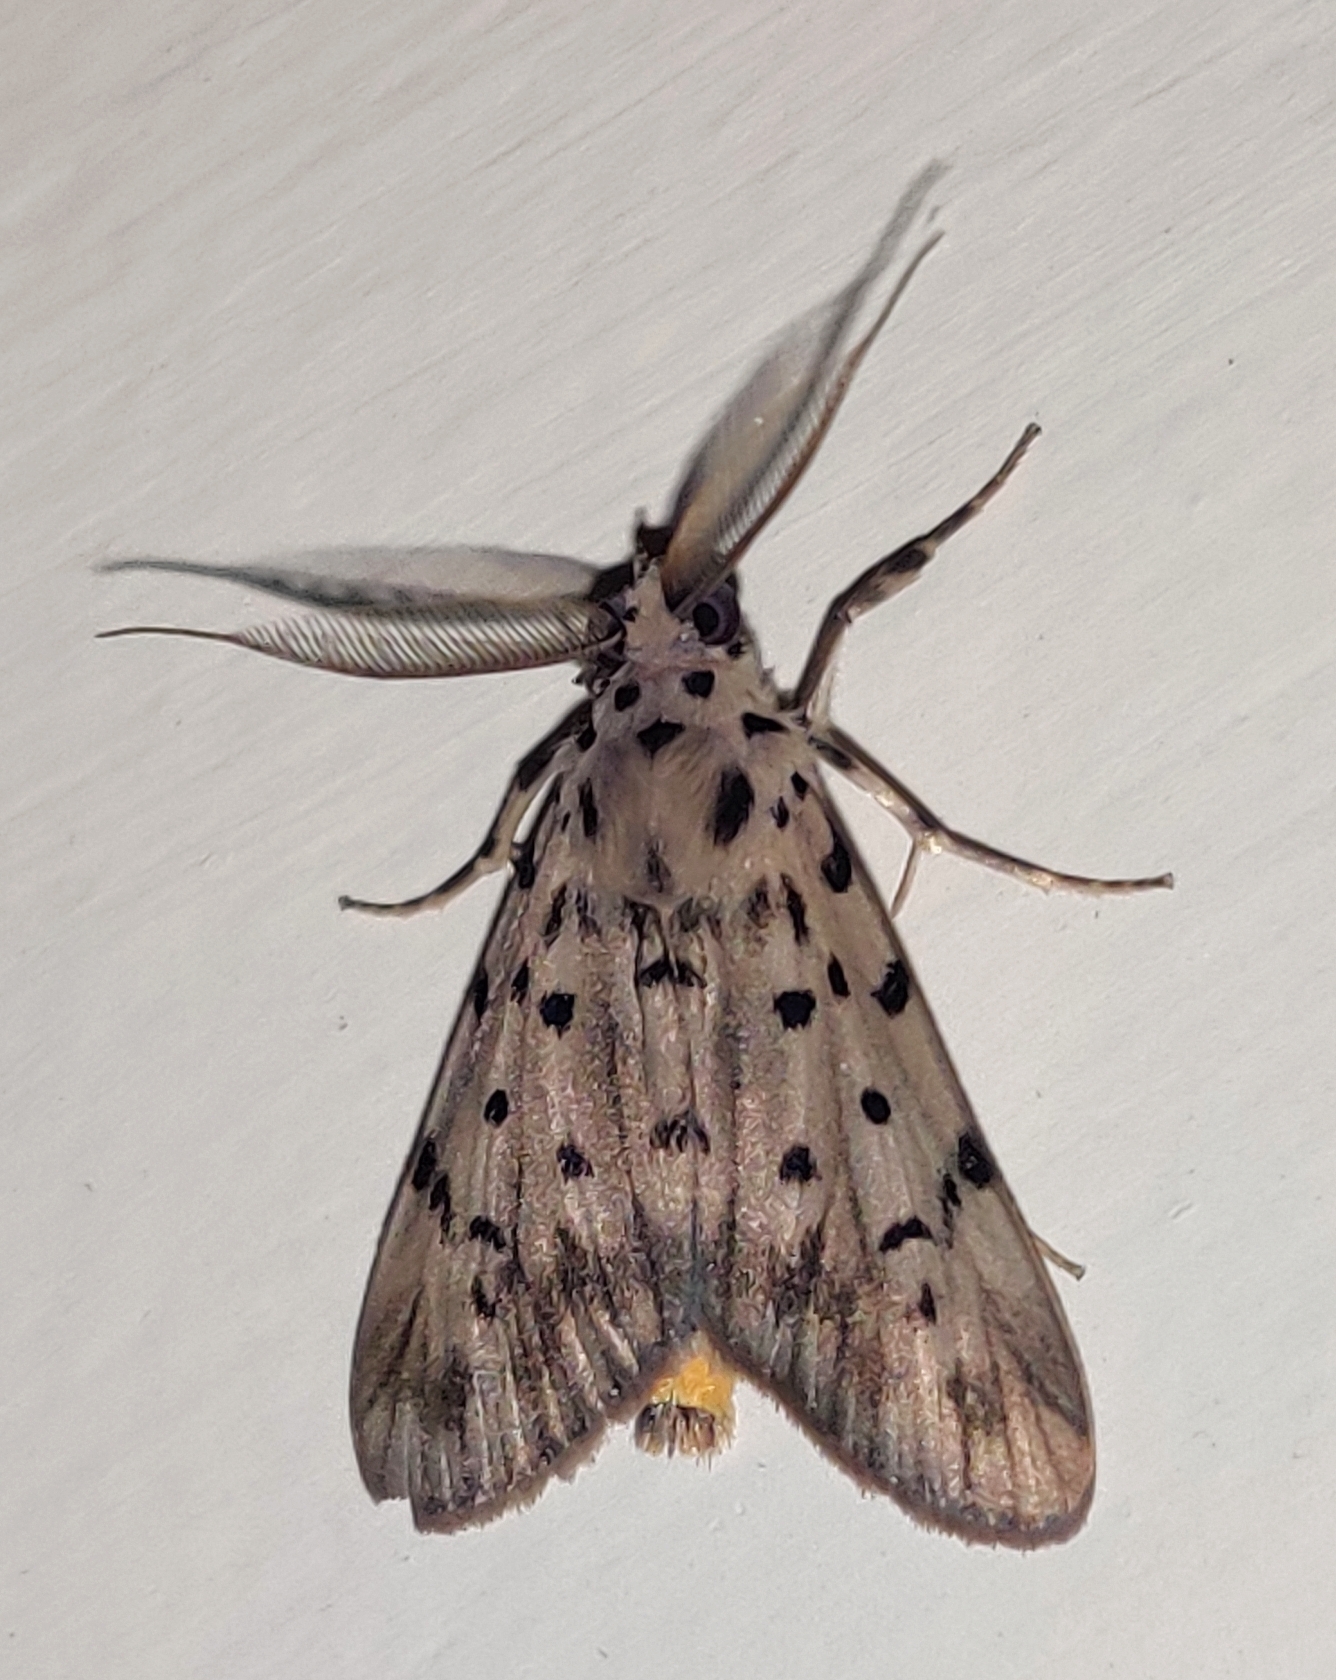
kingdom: Animalia
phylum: Arthropoda
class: Insecta
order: Lepidoptera
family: Erebidae
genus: Digama
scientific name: Digama
